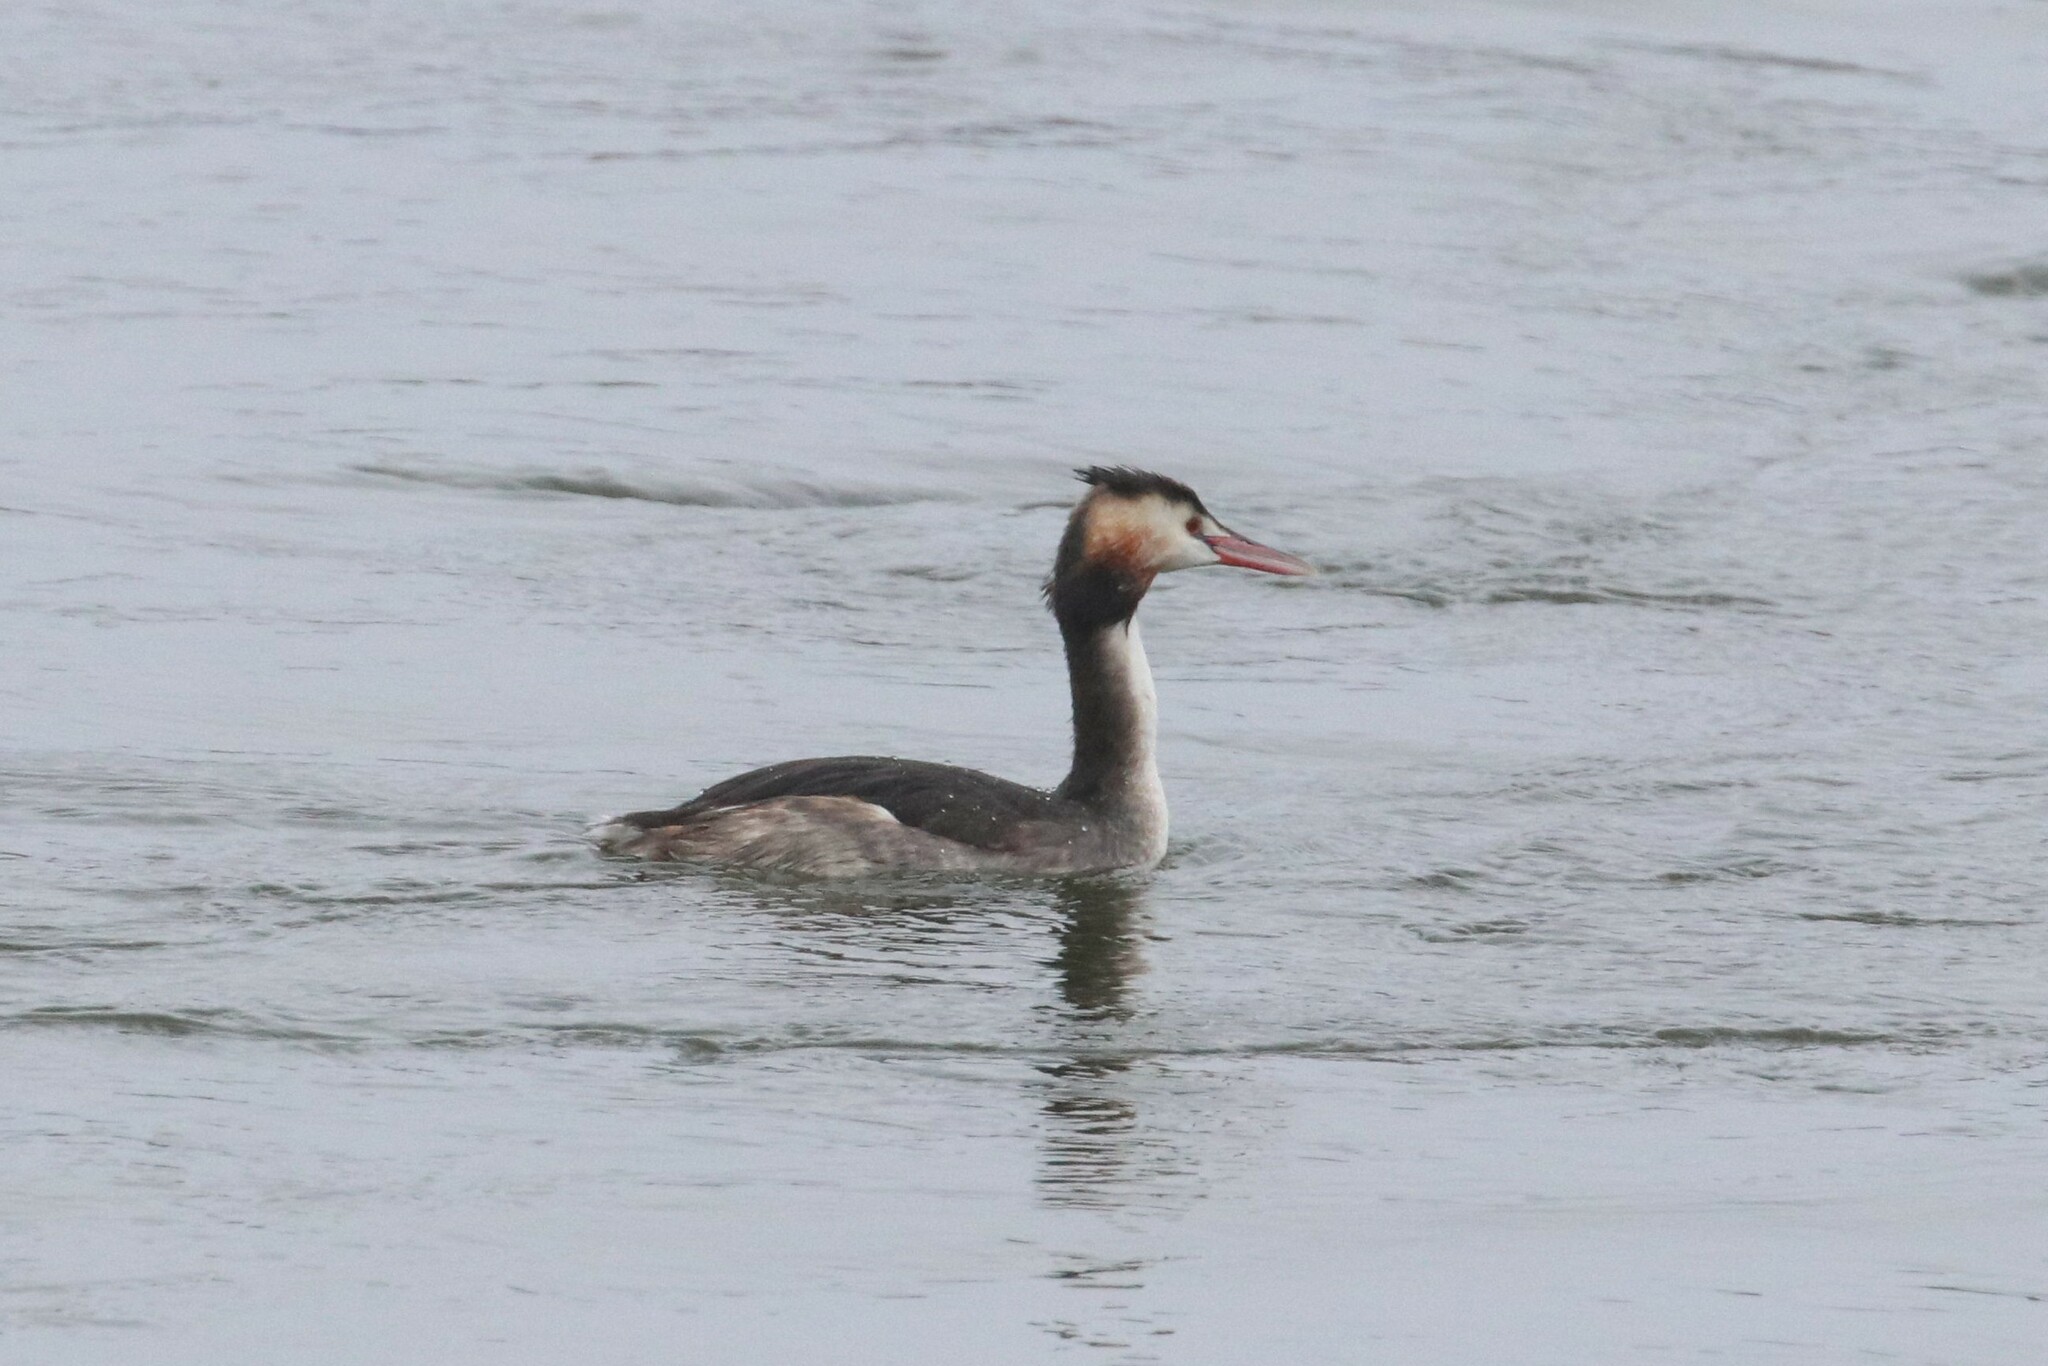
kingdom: Animalia
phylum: Chordata
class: Aves
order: Podicipediformes
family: Podicipedidae
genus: Podiceps
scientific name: Podiceps cristatus
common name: Great crested grebe
